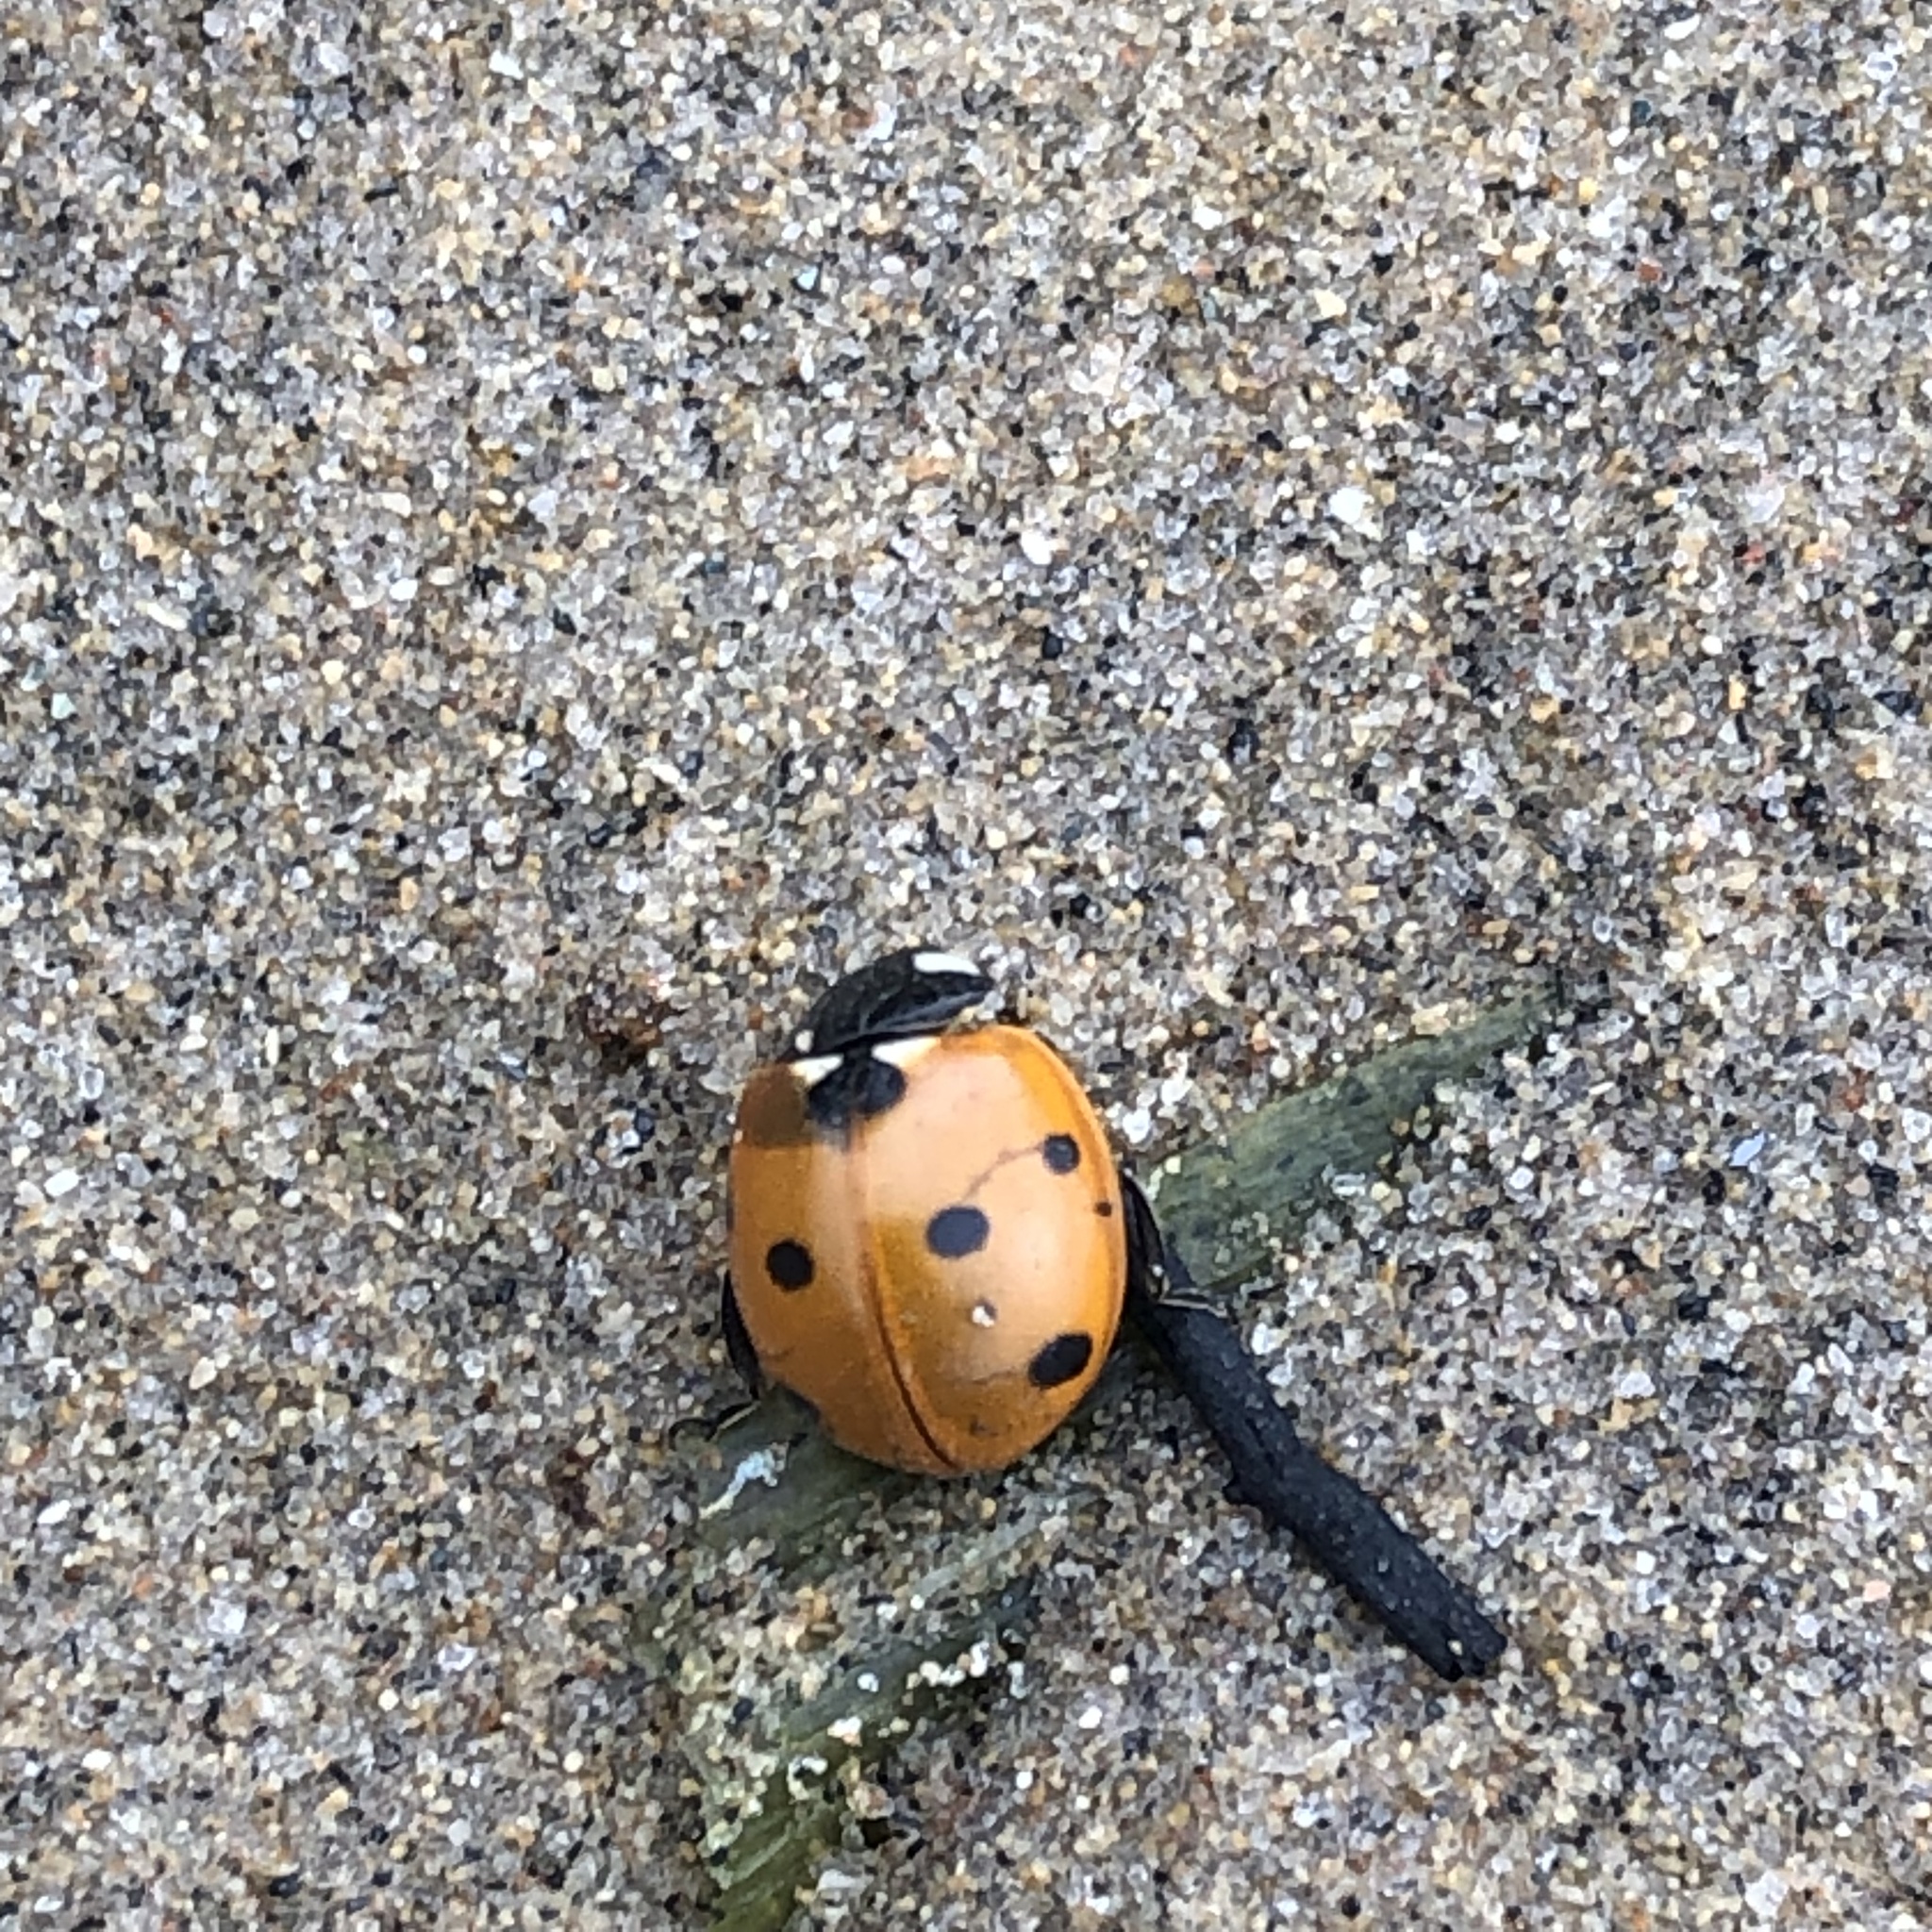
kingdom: Animalia
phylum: Arthropoda
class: Insecta
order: Coleoptera
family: Coccinellidae
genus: Coccinella
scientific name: Coccinella septempunctata
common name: Sevenspotted lady beetle
